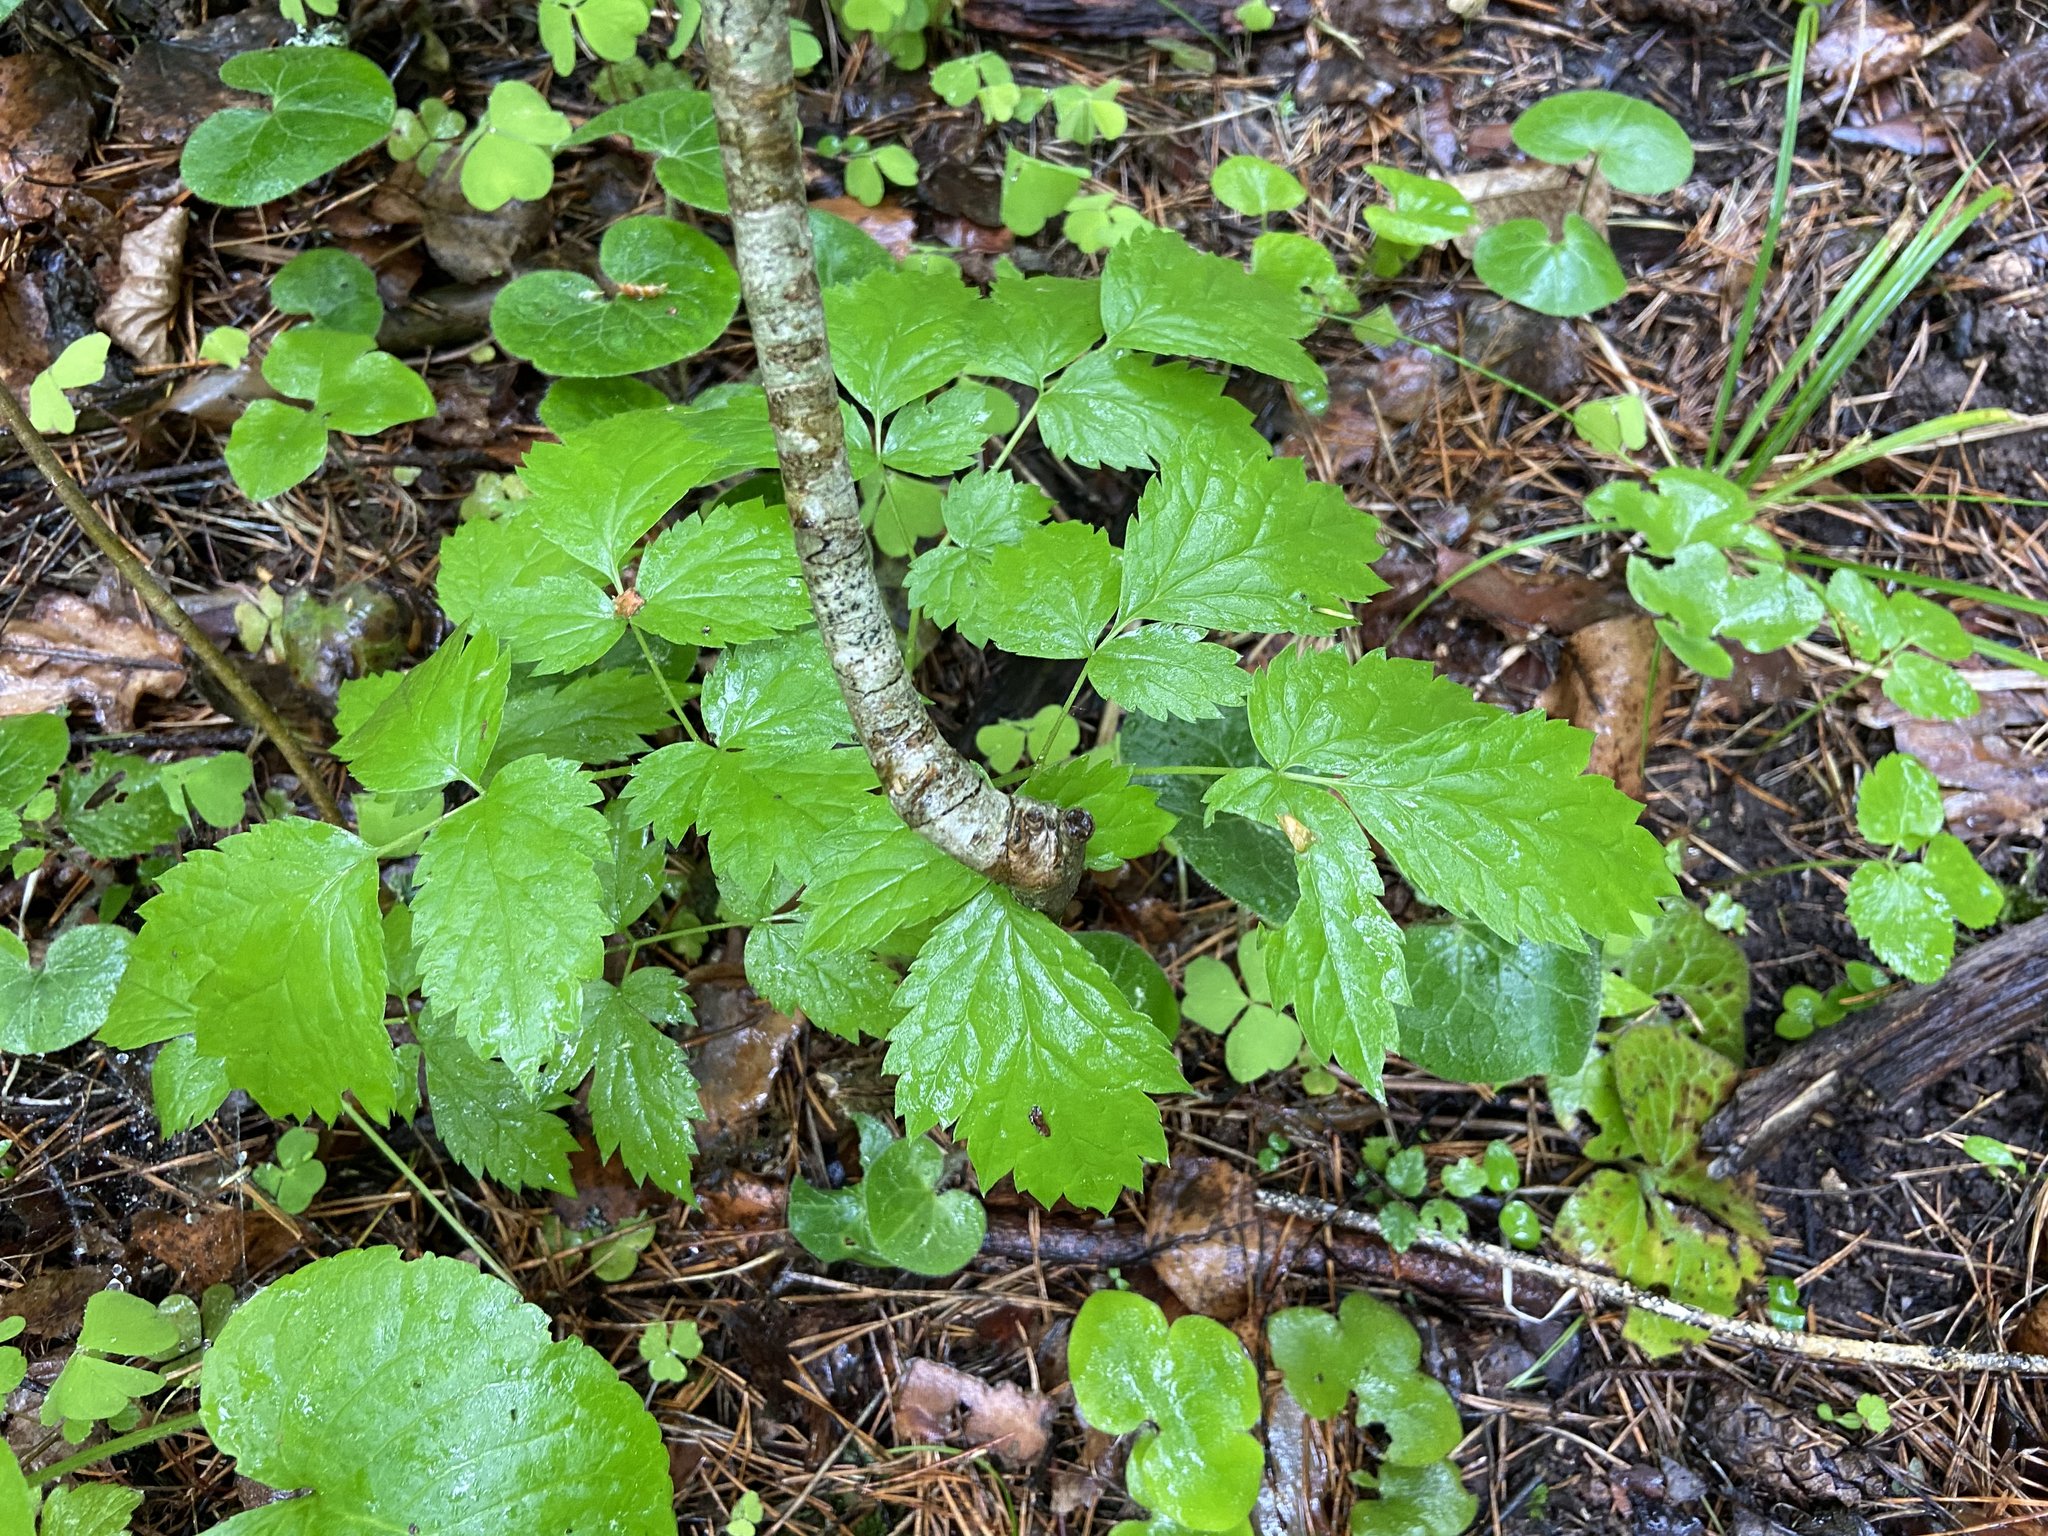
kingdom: Plantae
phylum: Tracheophyta
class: Magnoliopsida
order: Ranunculales
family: Ranunculaceae
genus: Actaea
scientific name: Actaea spicata
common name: Baneberry
